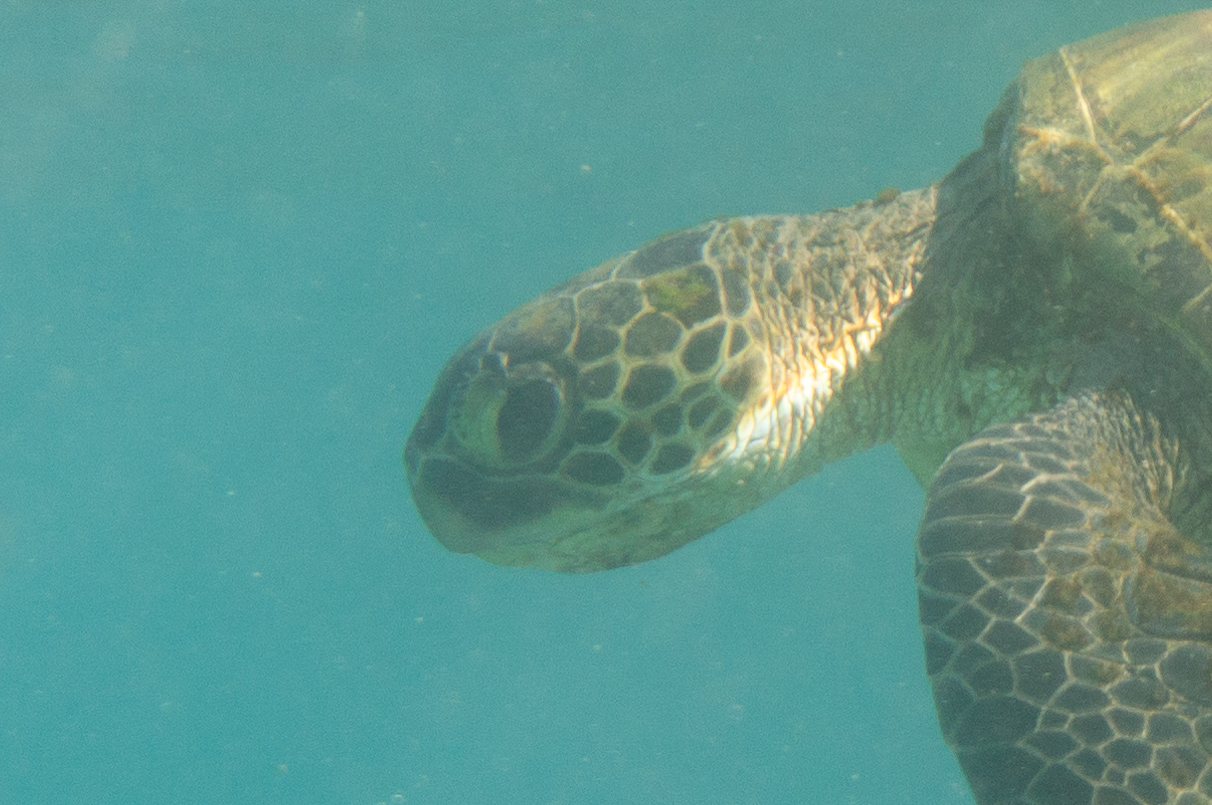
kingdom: Animalia
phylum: Chordata
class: Testudines
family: Cheloniidae
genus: Chelonia
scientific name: Chelonia mydas
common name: Green turtle
